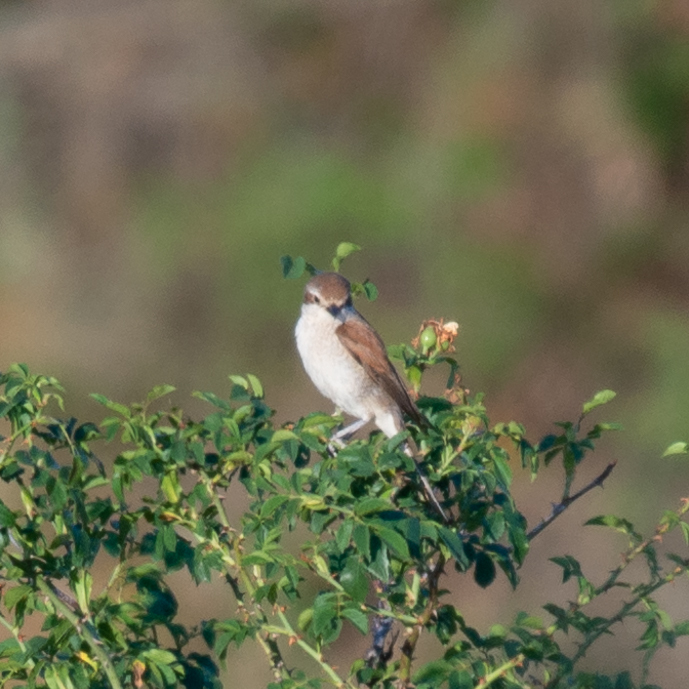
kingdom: Animalia
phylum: Chordata
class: Aves
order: Passeriformes
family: Laniidae
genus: Lanius
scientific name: Lanius collurio
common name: Red-backed shrike
